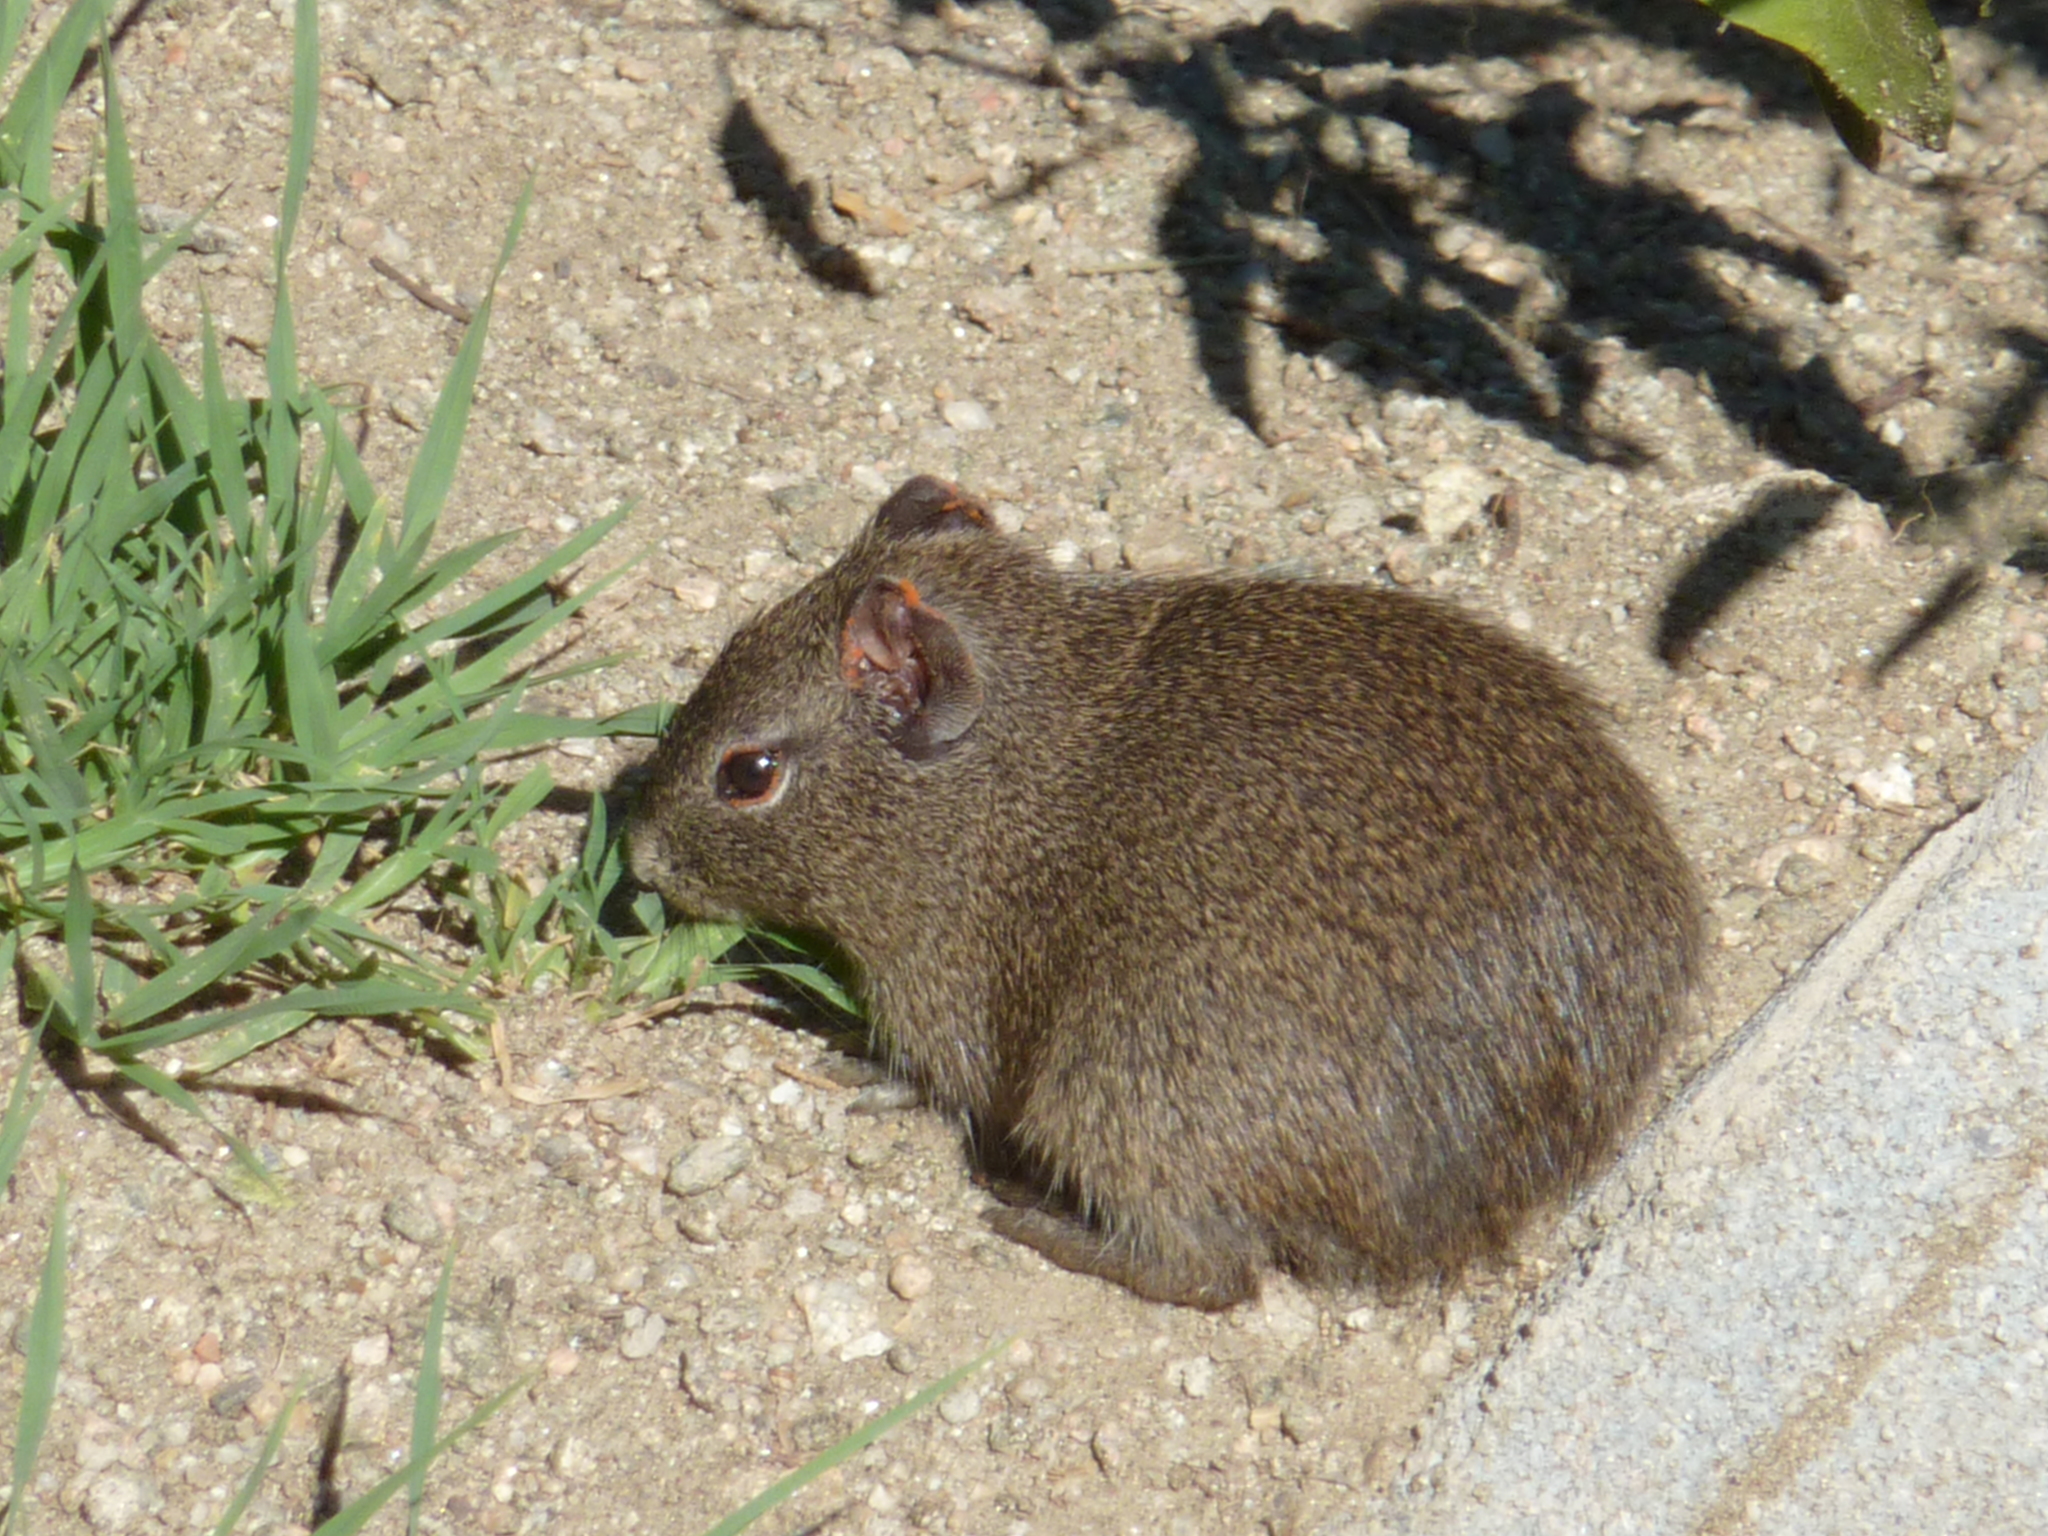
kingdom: Animalia
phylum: Chordata
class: Mammalia
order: Rodentia
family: Caviidae
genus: Cavia
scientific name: Cavia aperea
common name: Brazilian guinea pig
